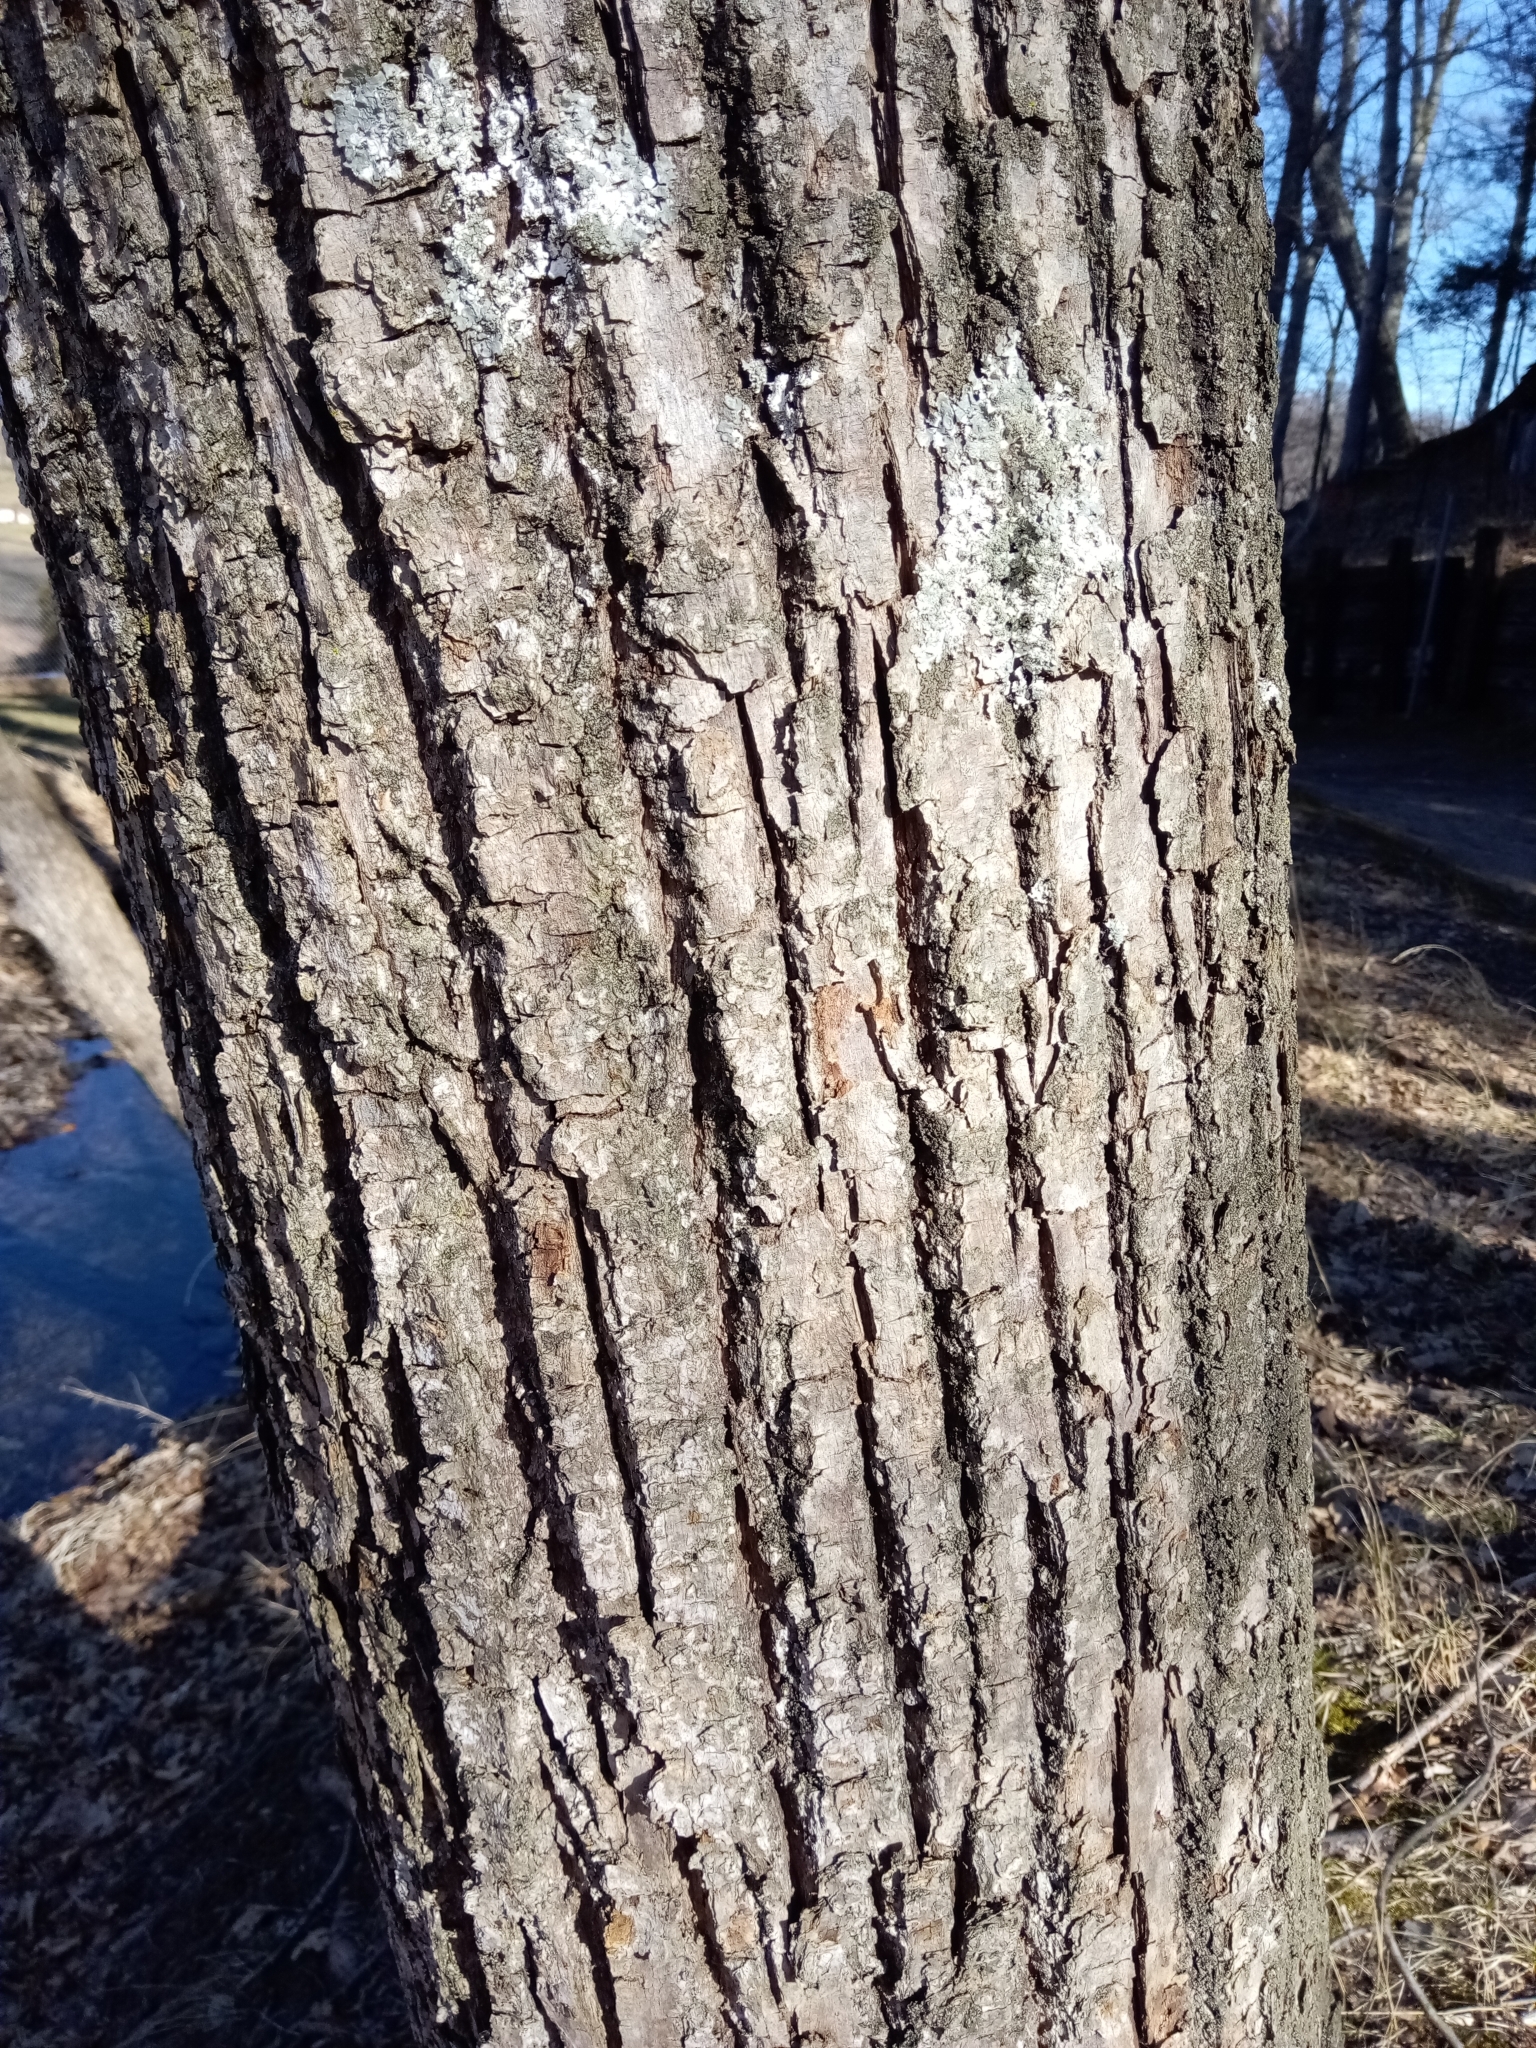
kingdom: Plantae
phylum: Tracheophyta
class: Magnoliopsida
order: Malvales
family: Malvaceae
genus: Tilia
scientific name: Tilia americana
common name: Basswood
